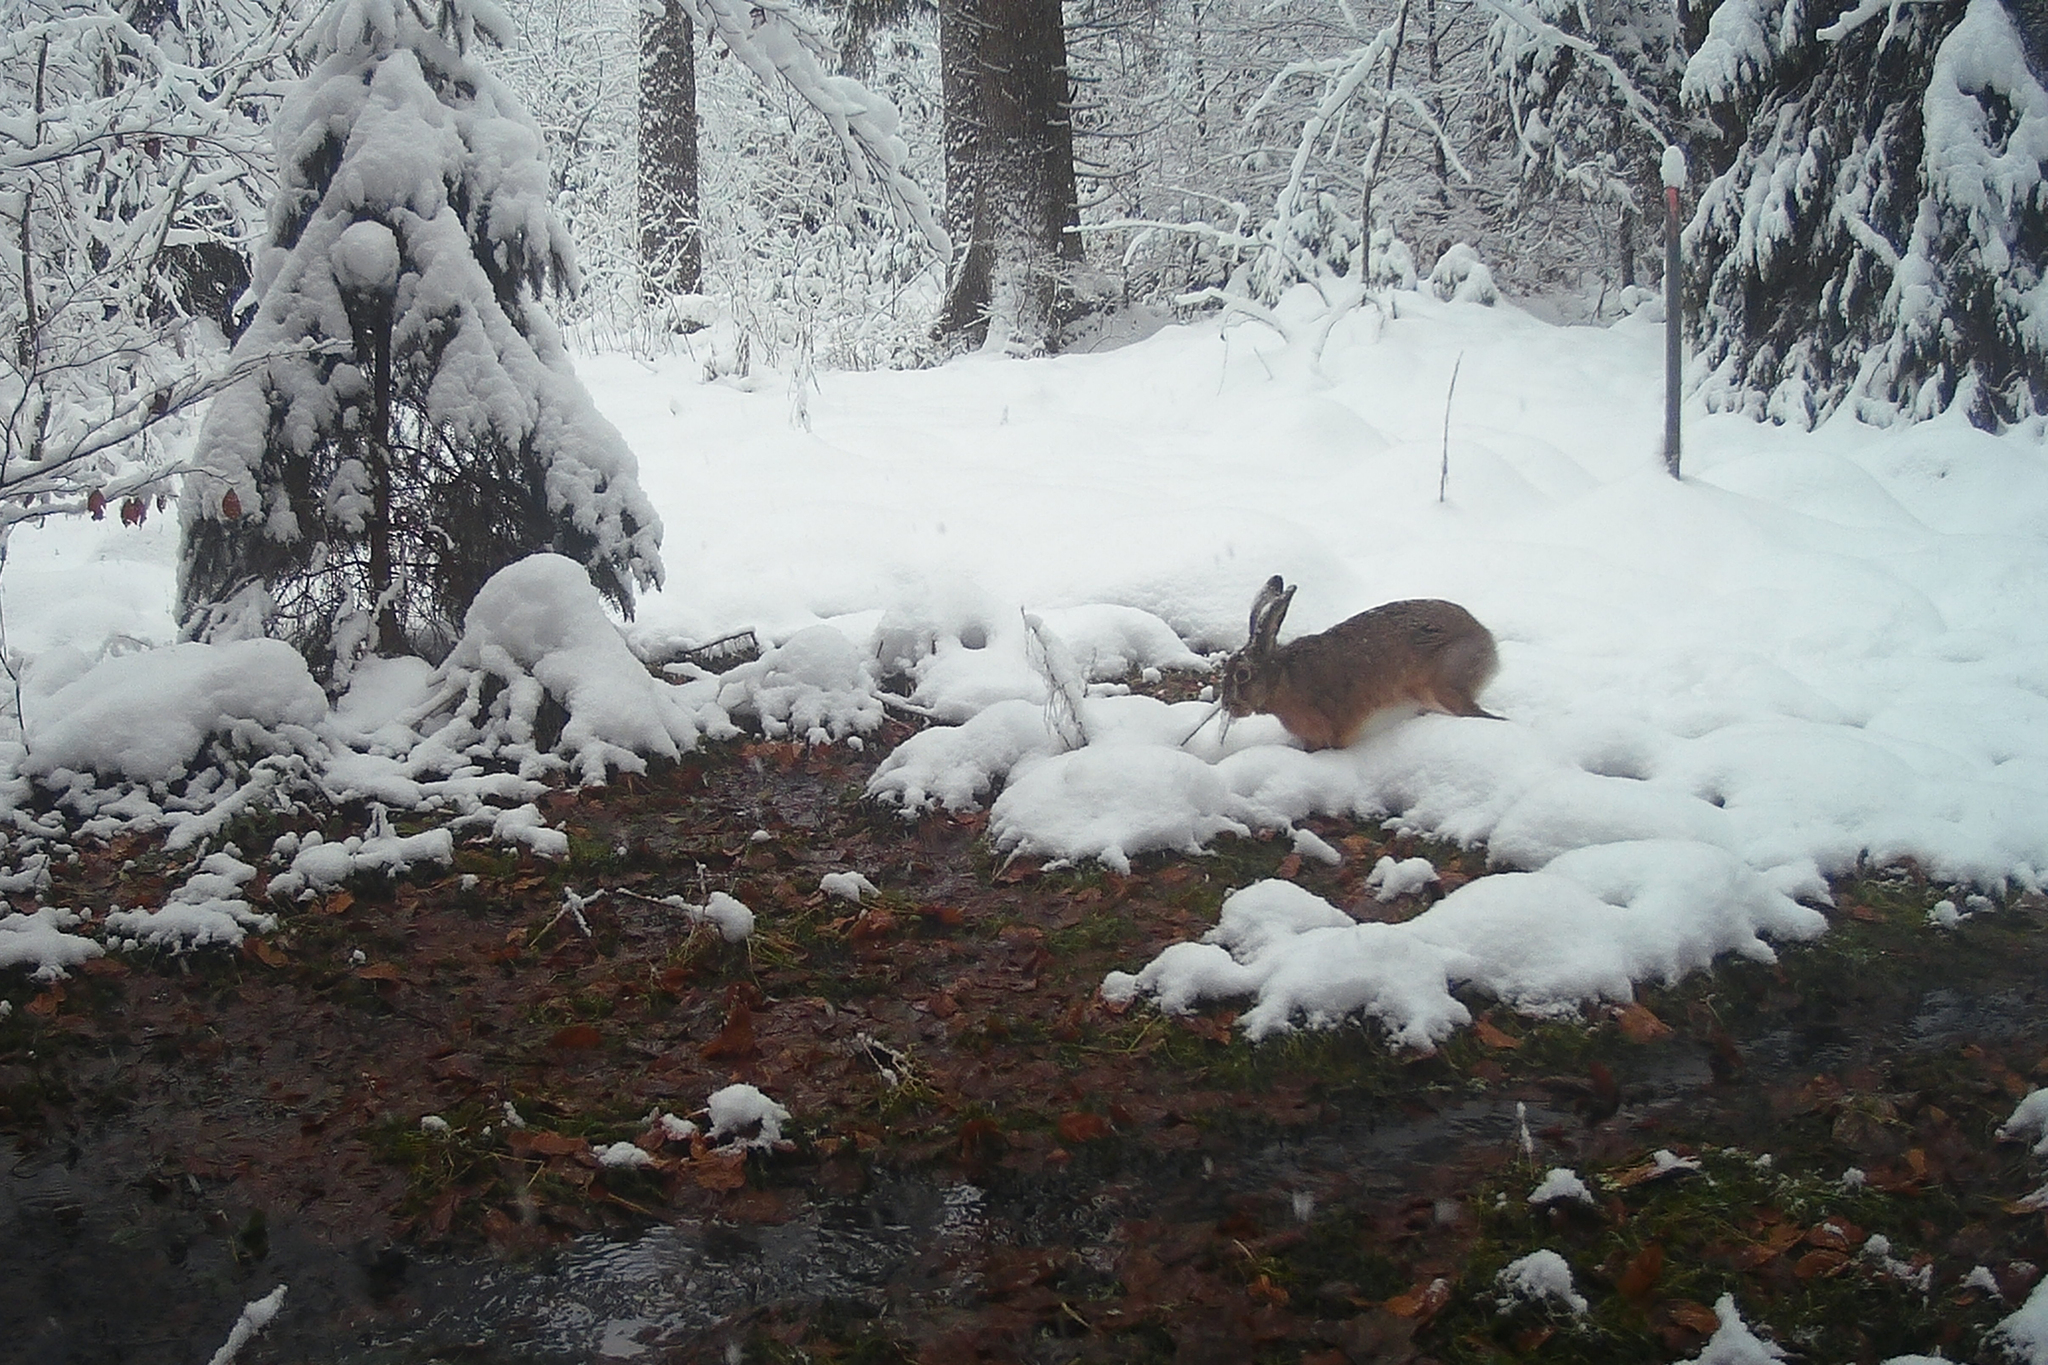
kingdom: Animalia
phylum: Chordata
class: Mammalia
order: Lagomorpha
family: Leporidae
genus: Lepus
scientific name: Lepus europaeus
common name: European hare
